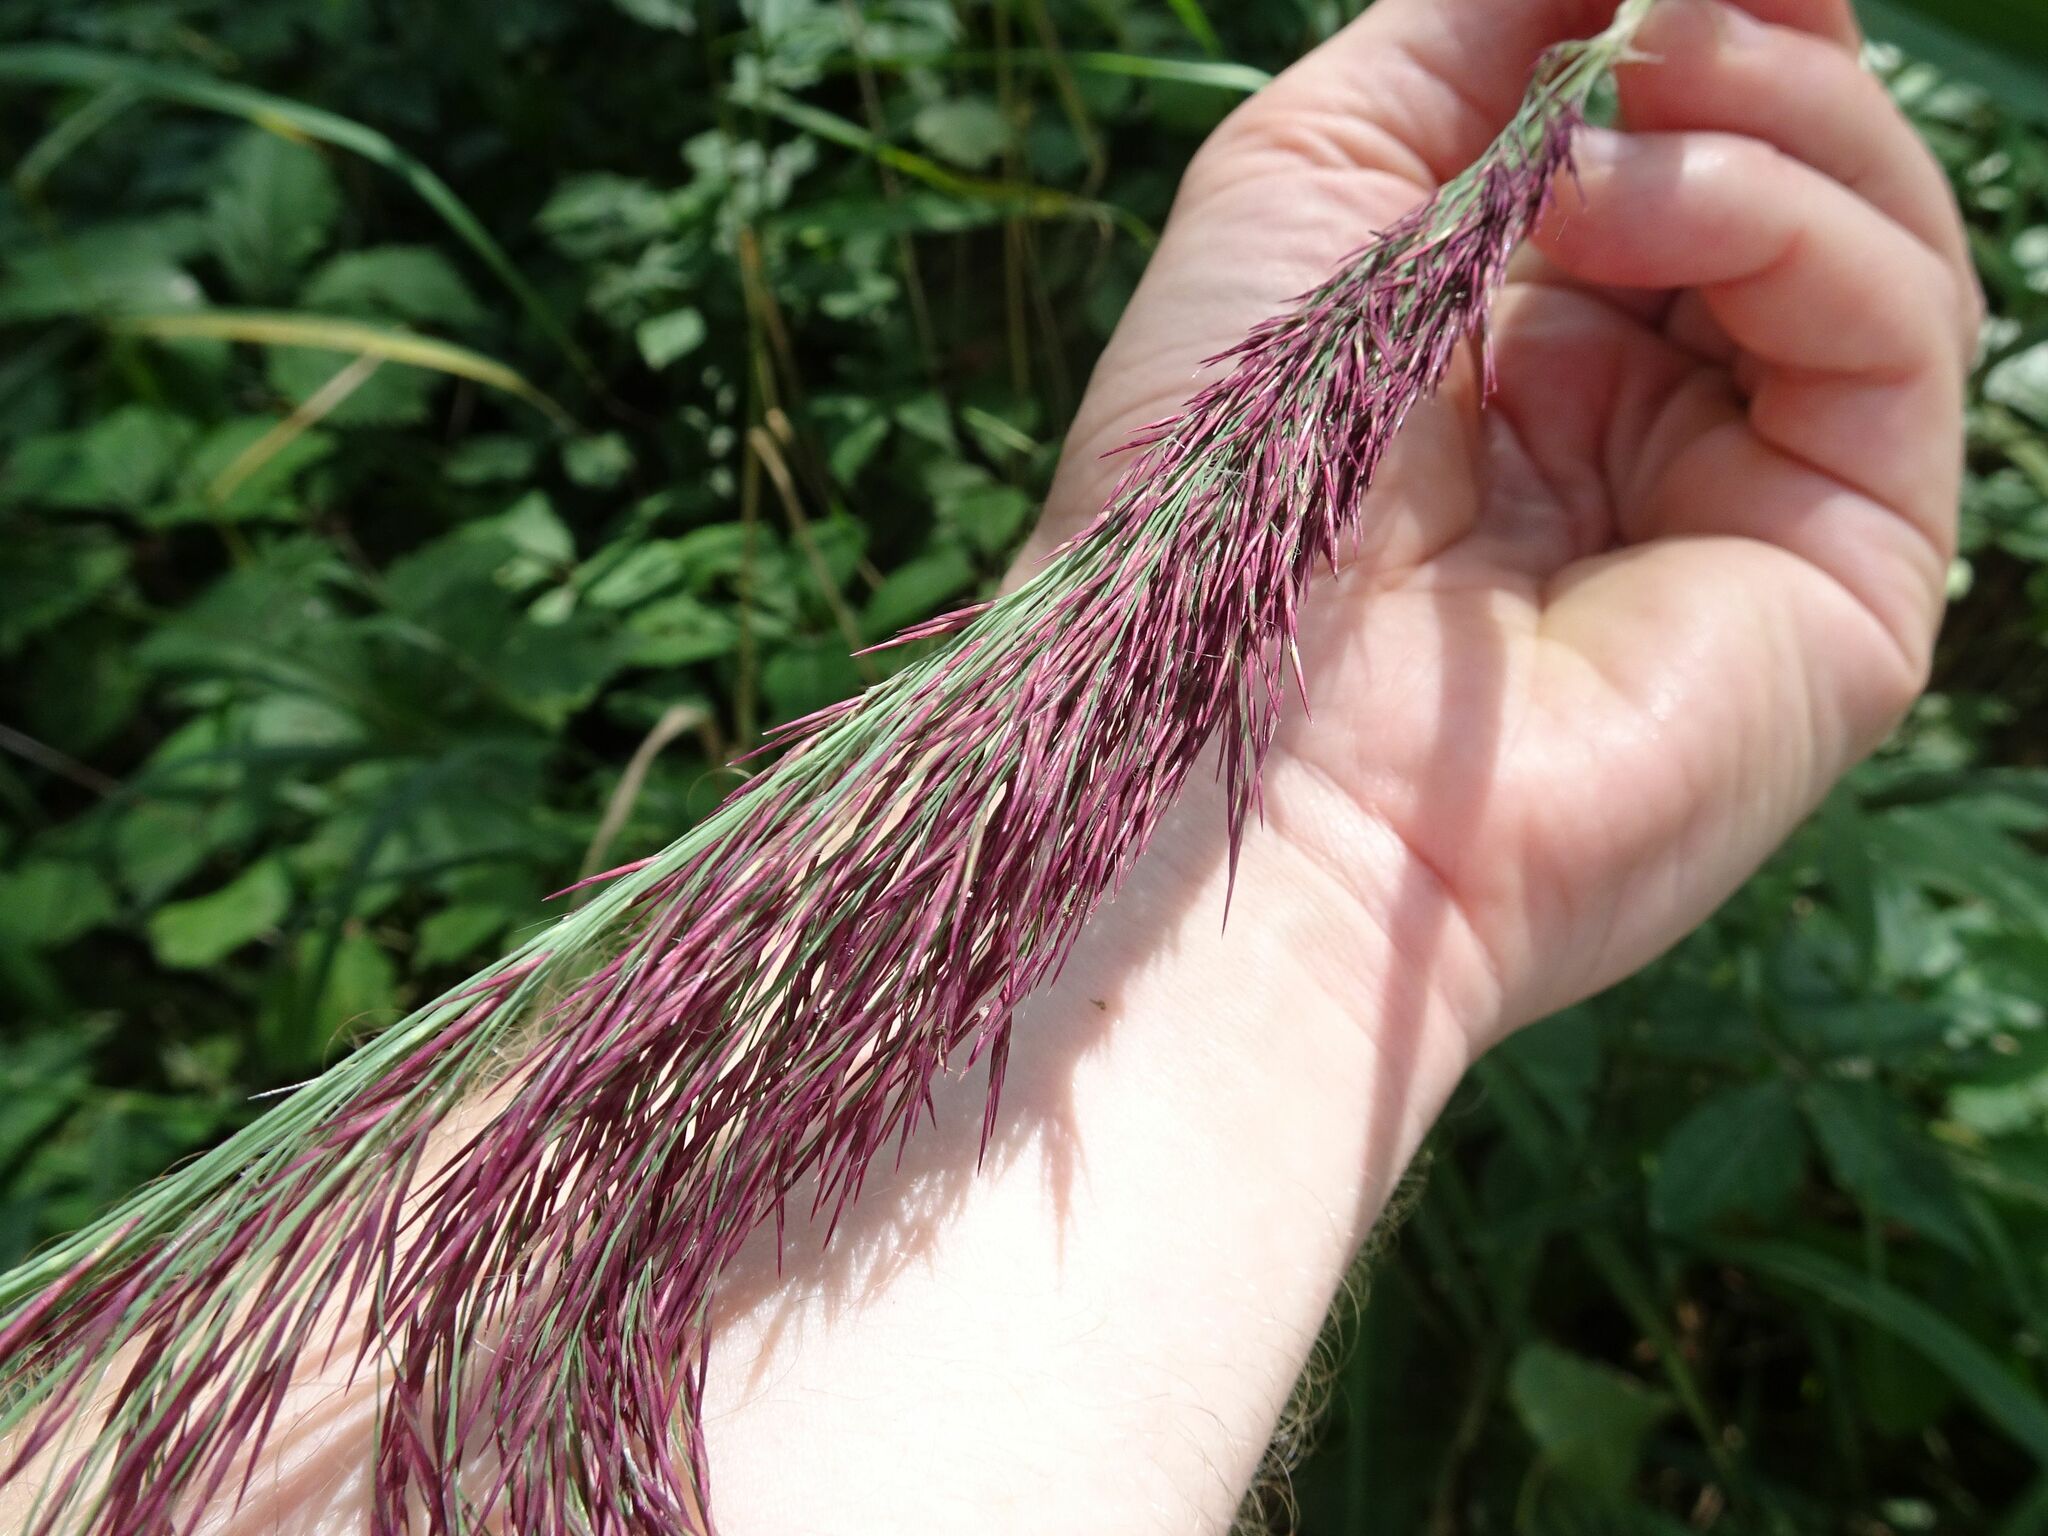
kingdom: Plantae
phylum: Tracheophyta
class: Liliopsida
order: Poales
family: Poaceae
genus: Phragmites
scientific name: Phragmites australis
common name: Common reed
